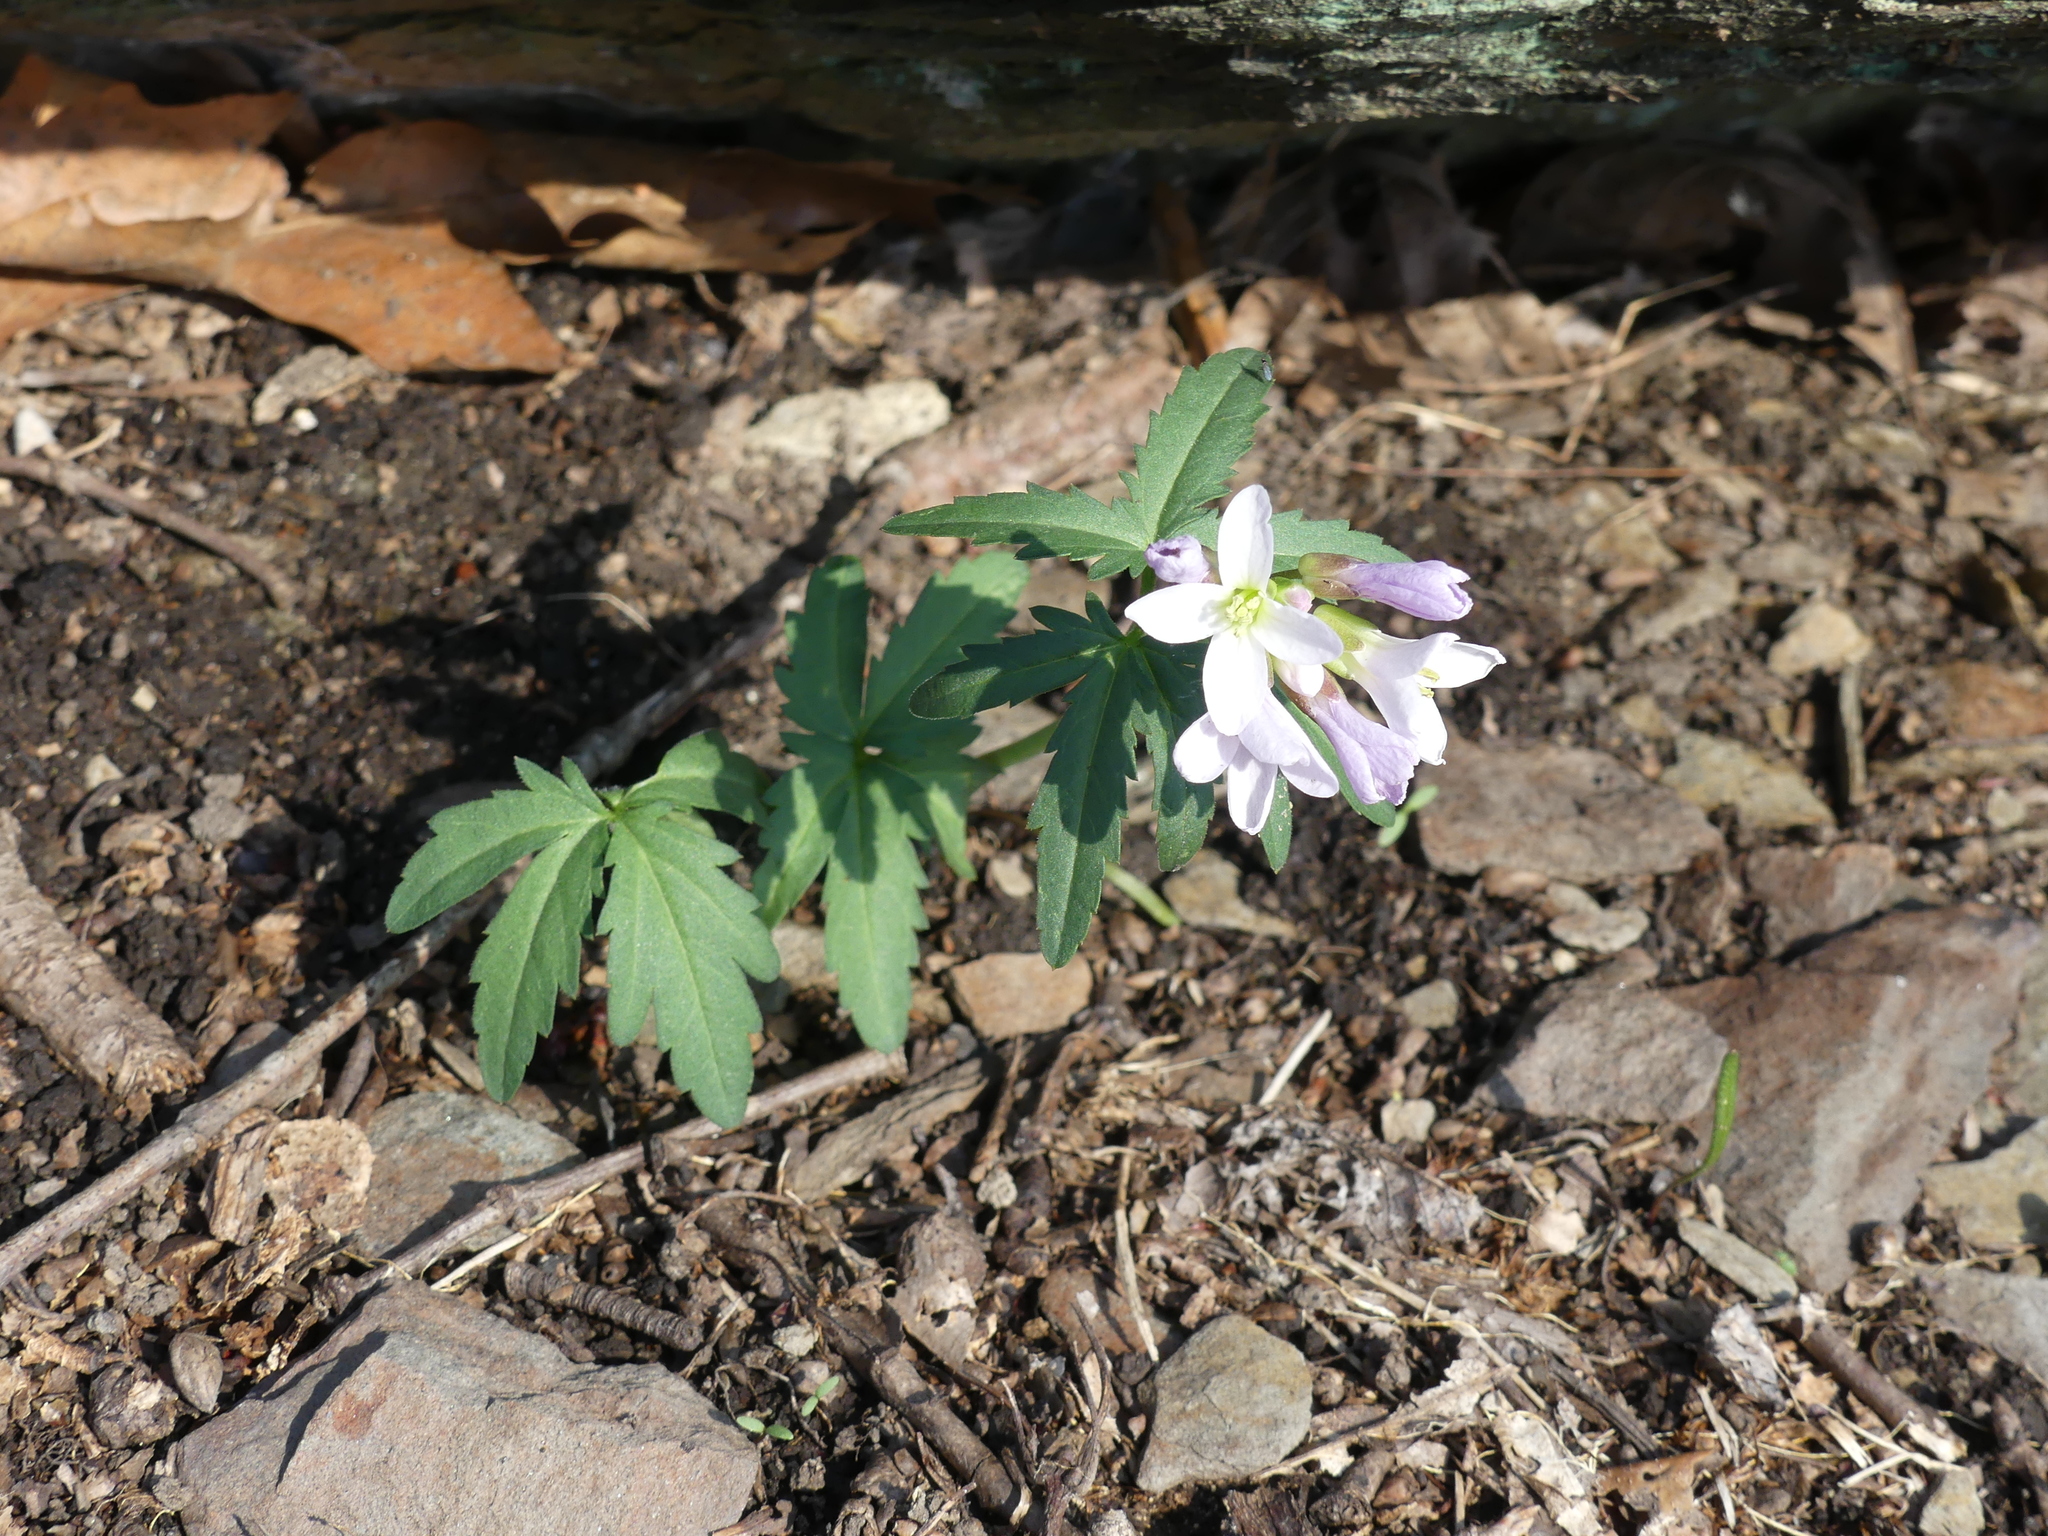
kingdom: Plantae
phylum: Tracheophyta
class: Magnoliopsida
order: Brassicales
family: Brassicaceae
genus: Cardamine
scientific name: Cardamine concatenata
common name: Cut-leaf toothcup
